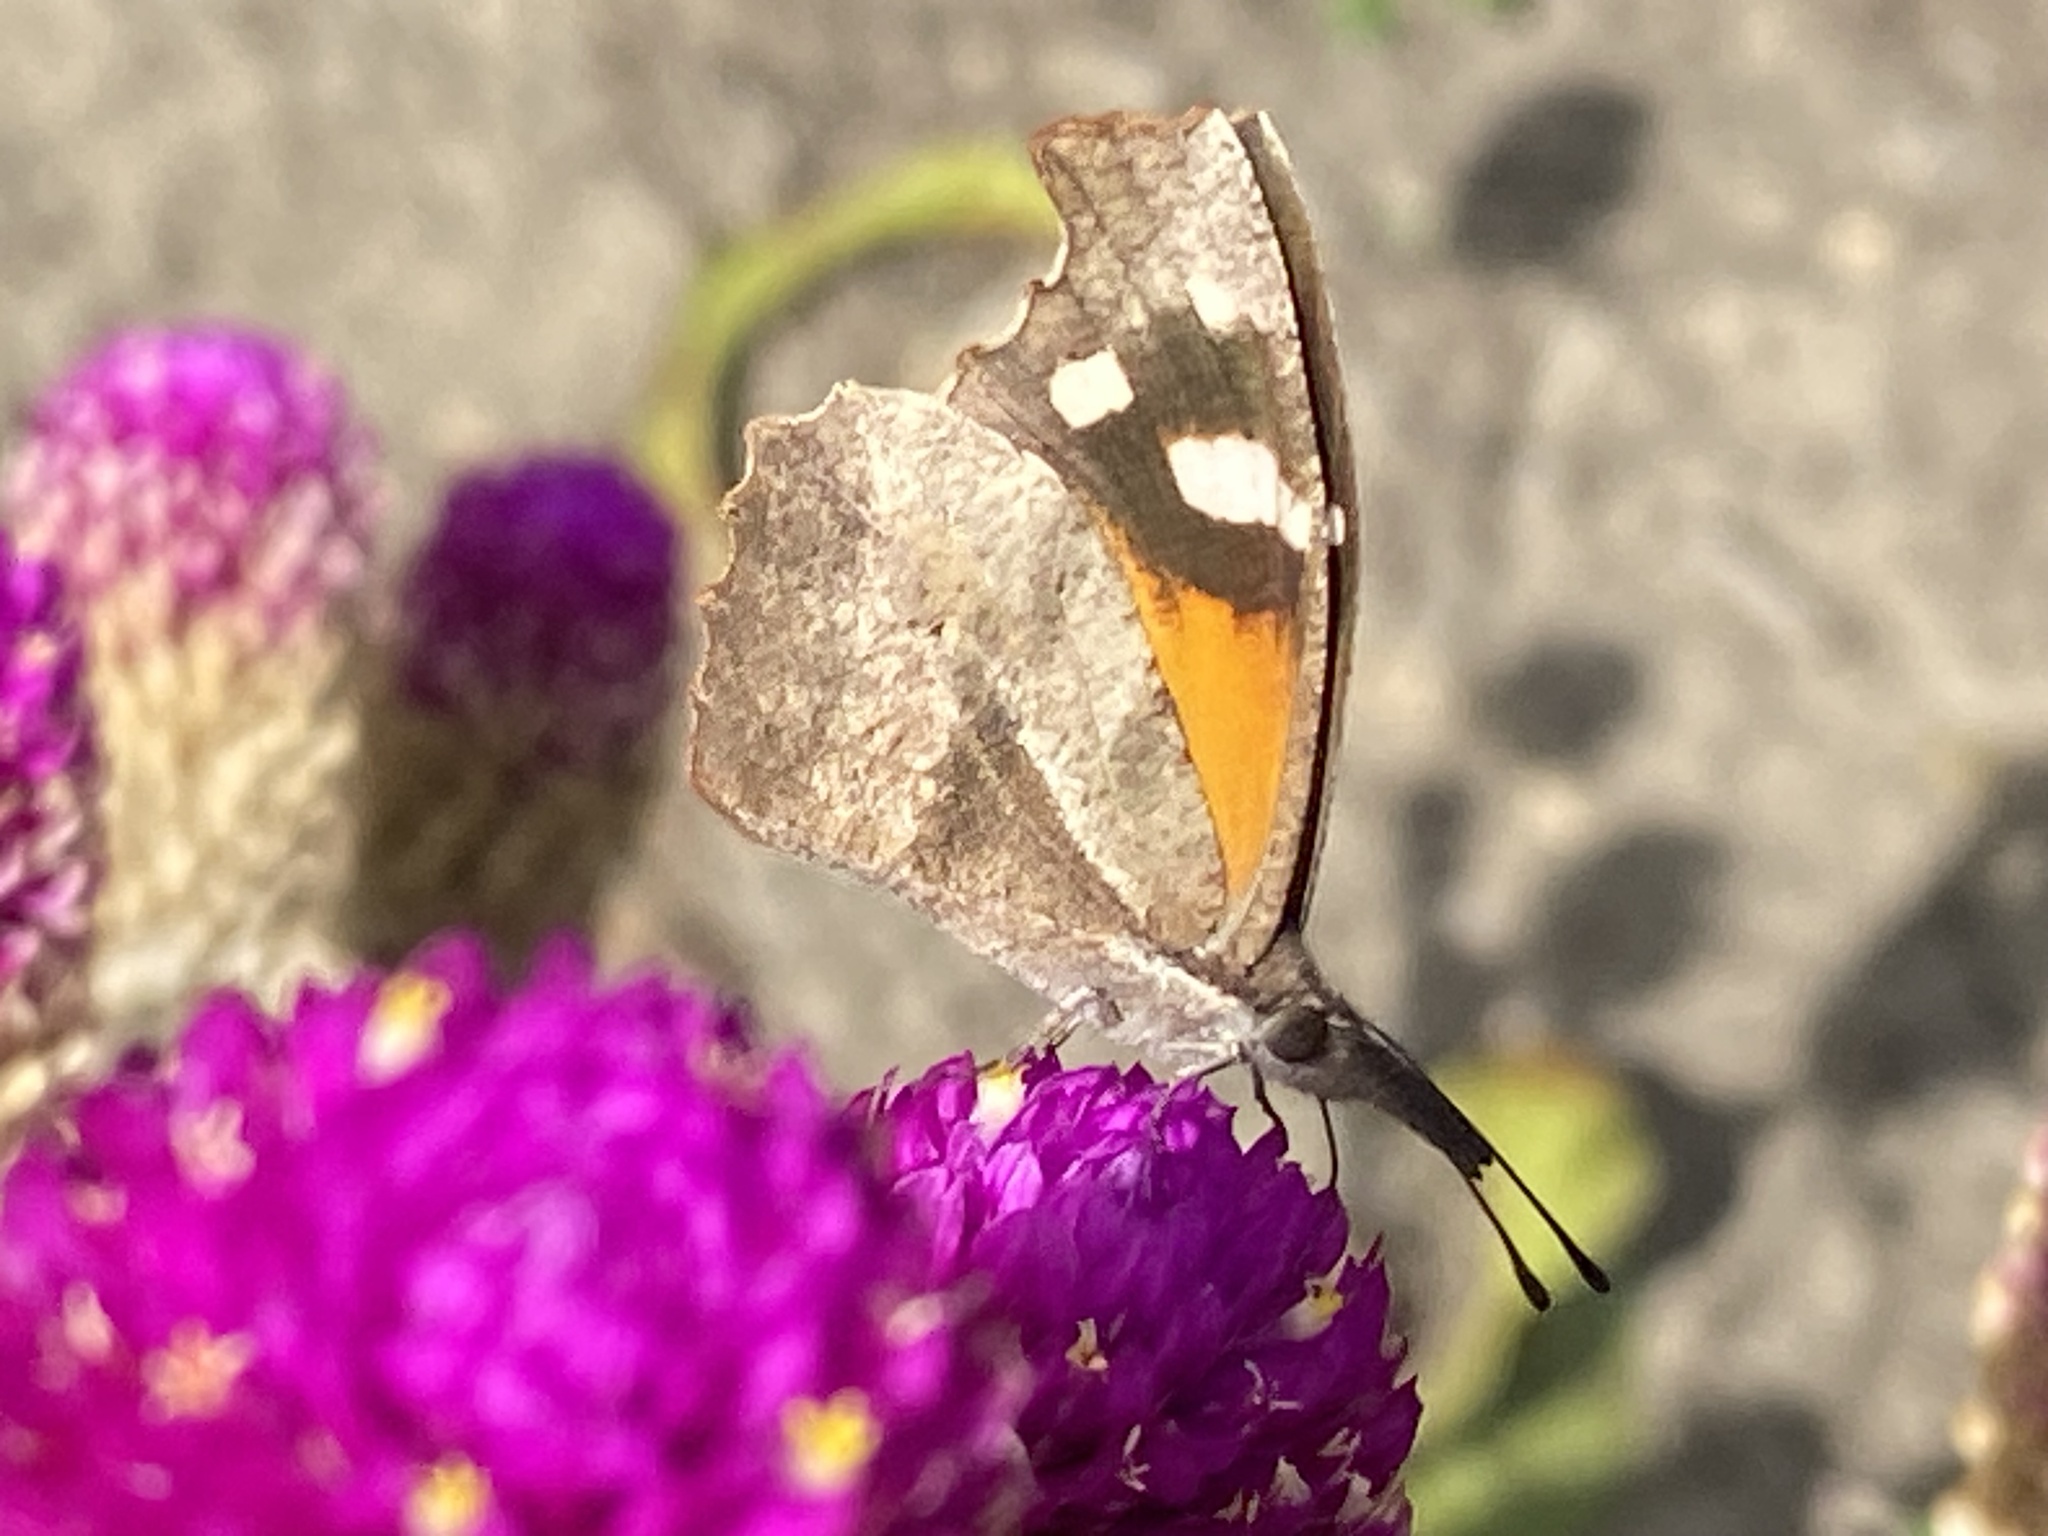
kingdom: Animalia
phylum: Arthropoda
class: Insecta
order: Lepidoptera
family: Nymphalidae
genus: Libytheana
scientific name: Libytheana carinenta
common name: American snout
